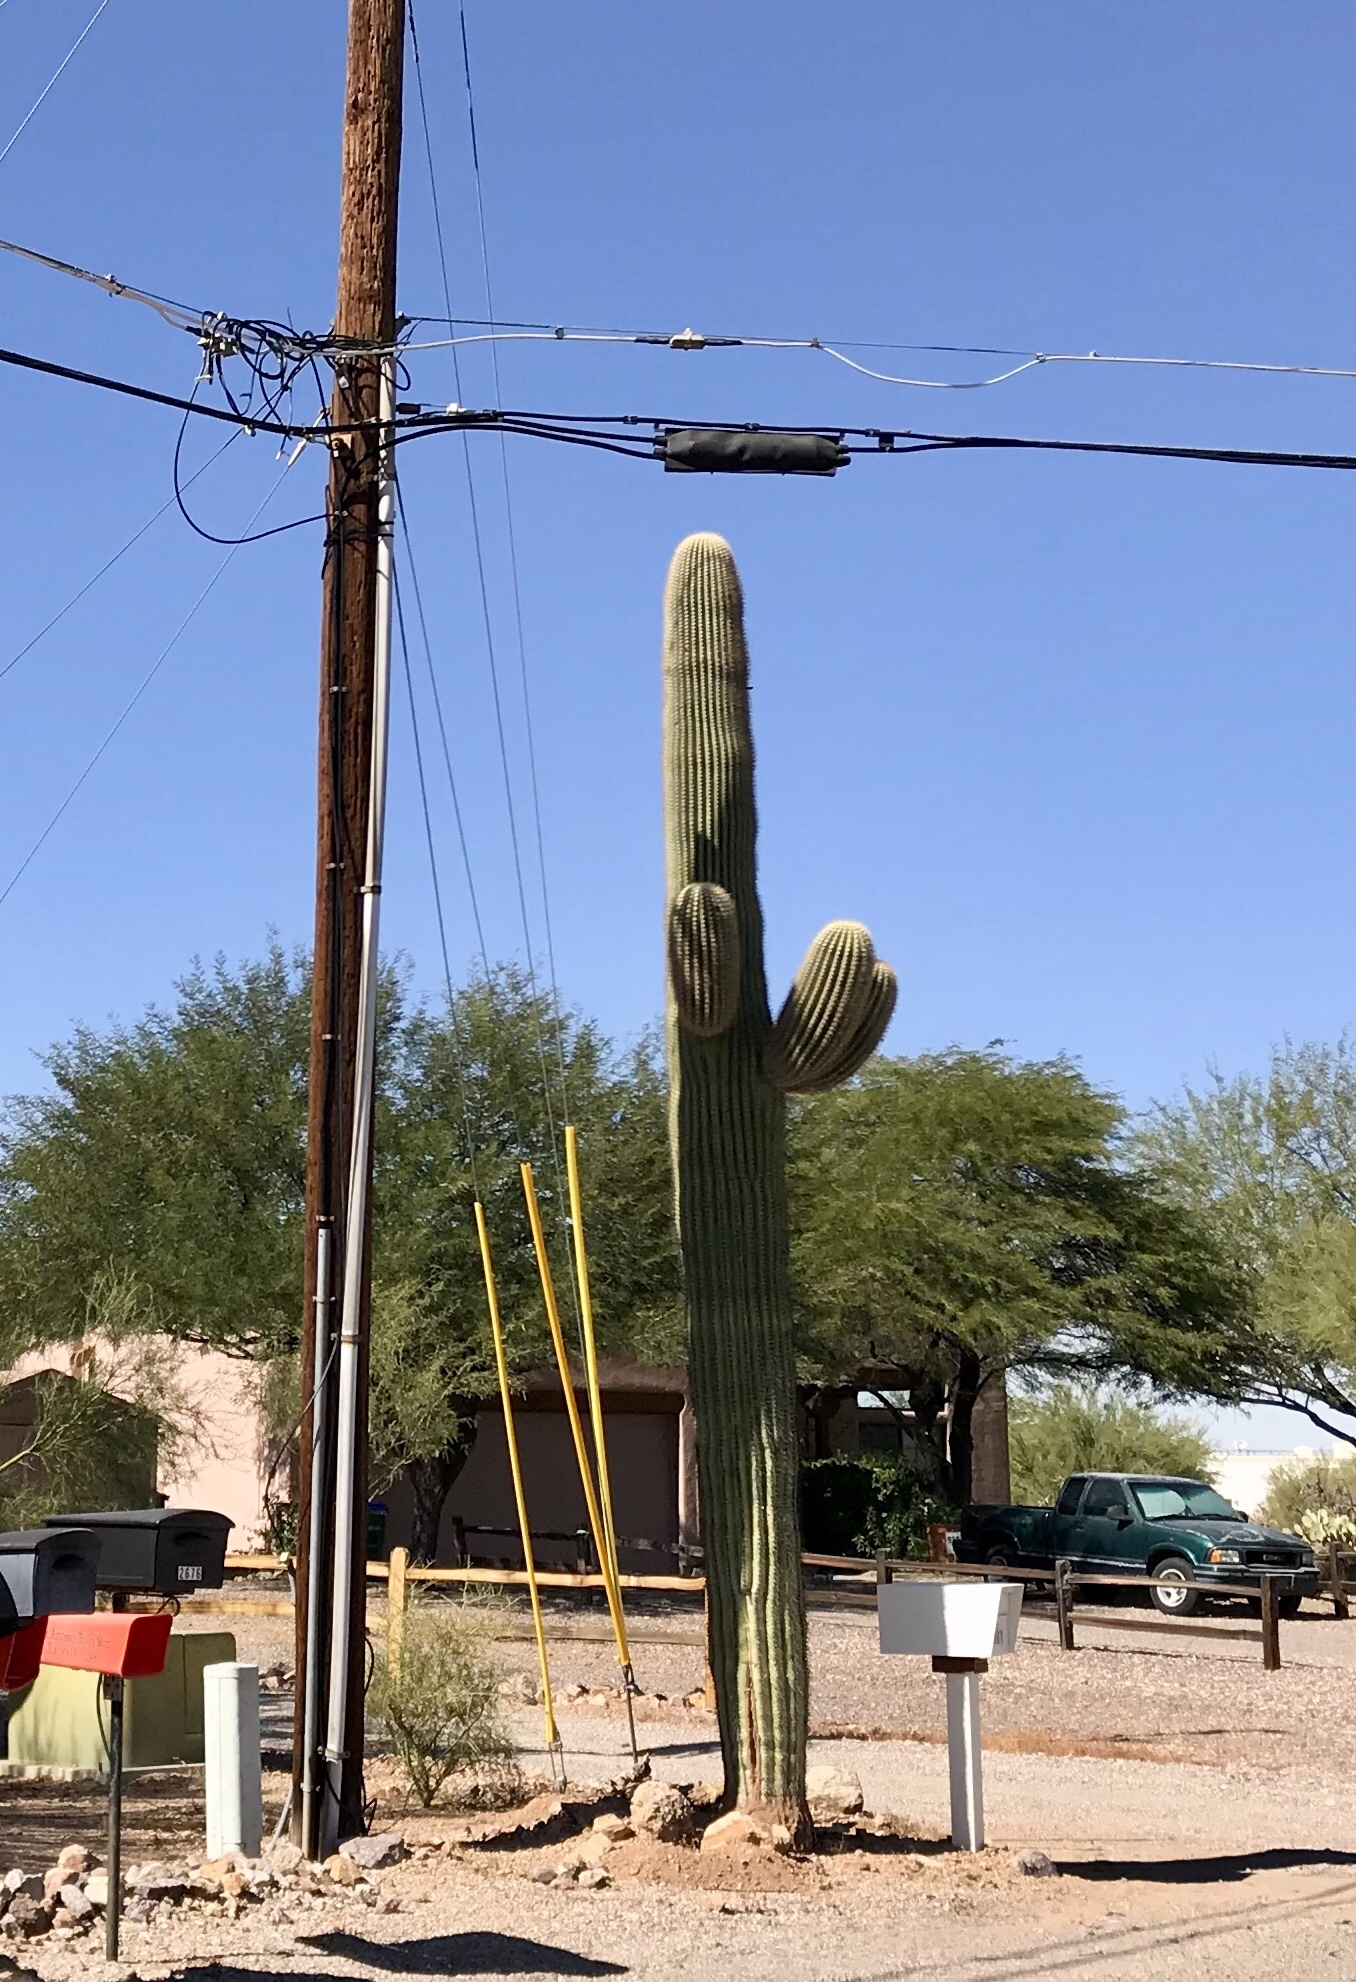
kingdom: Plantae
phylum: Tracheophyta
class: Magnoliopsida
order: Caryophyllales
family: Cactaceae
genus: Carnegiea
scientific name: Carnegiea gigantea
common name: Saguaro
